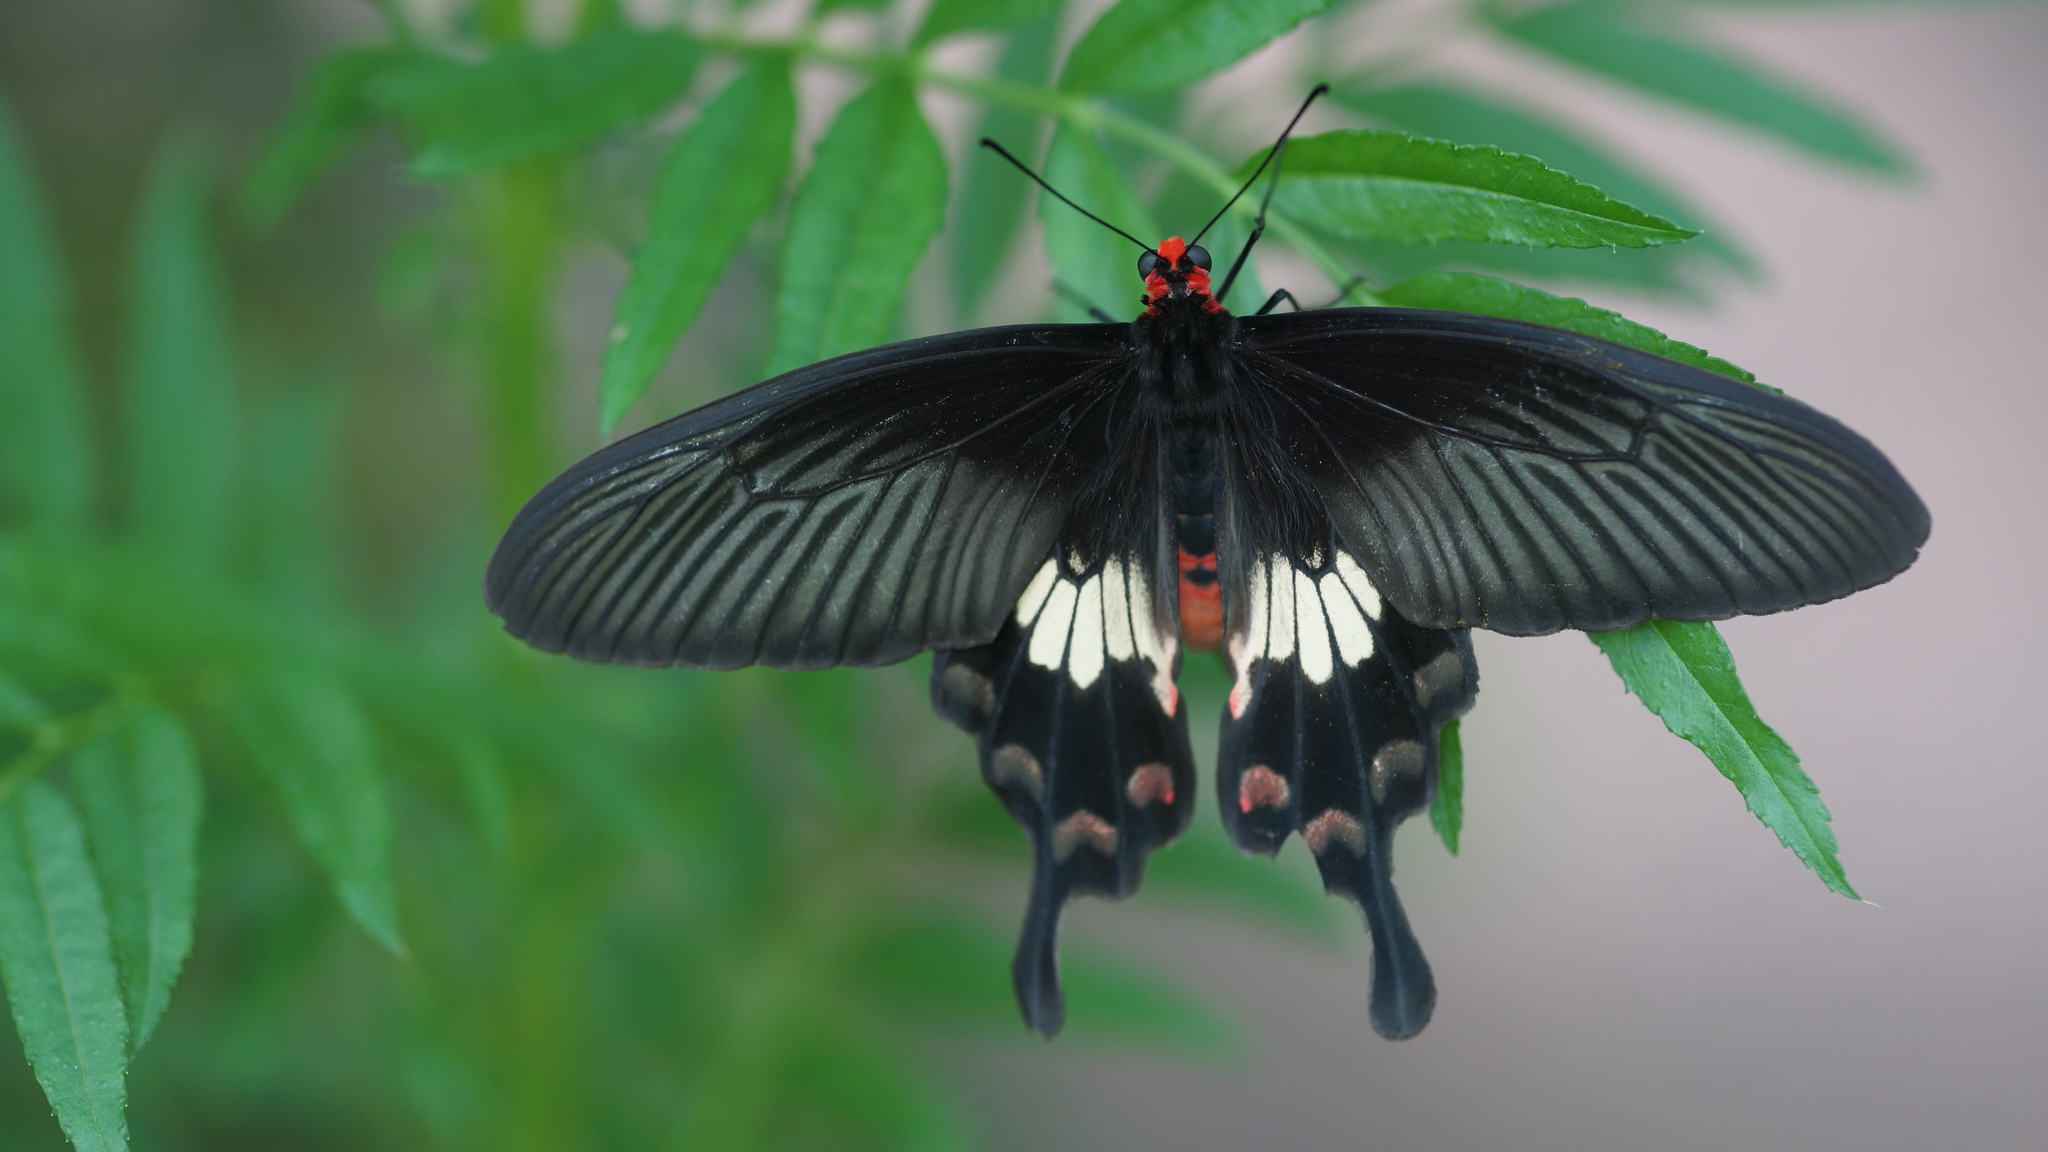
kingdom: Animalia
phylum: Arthropoda
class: Insecta
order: Lepidoptera
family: Papilionidae
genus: Pachliopta
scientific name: Pachliopta aristolochiae
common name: Common rose
